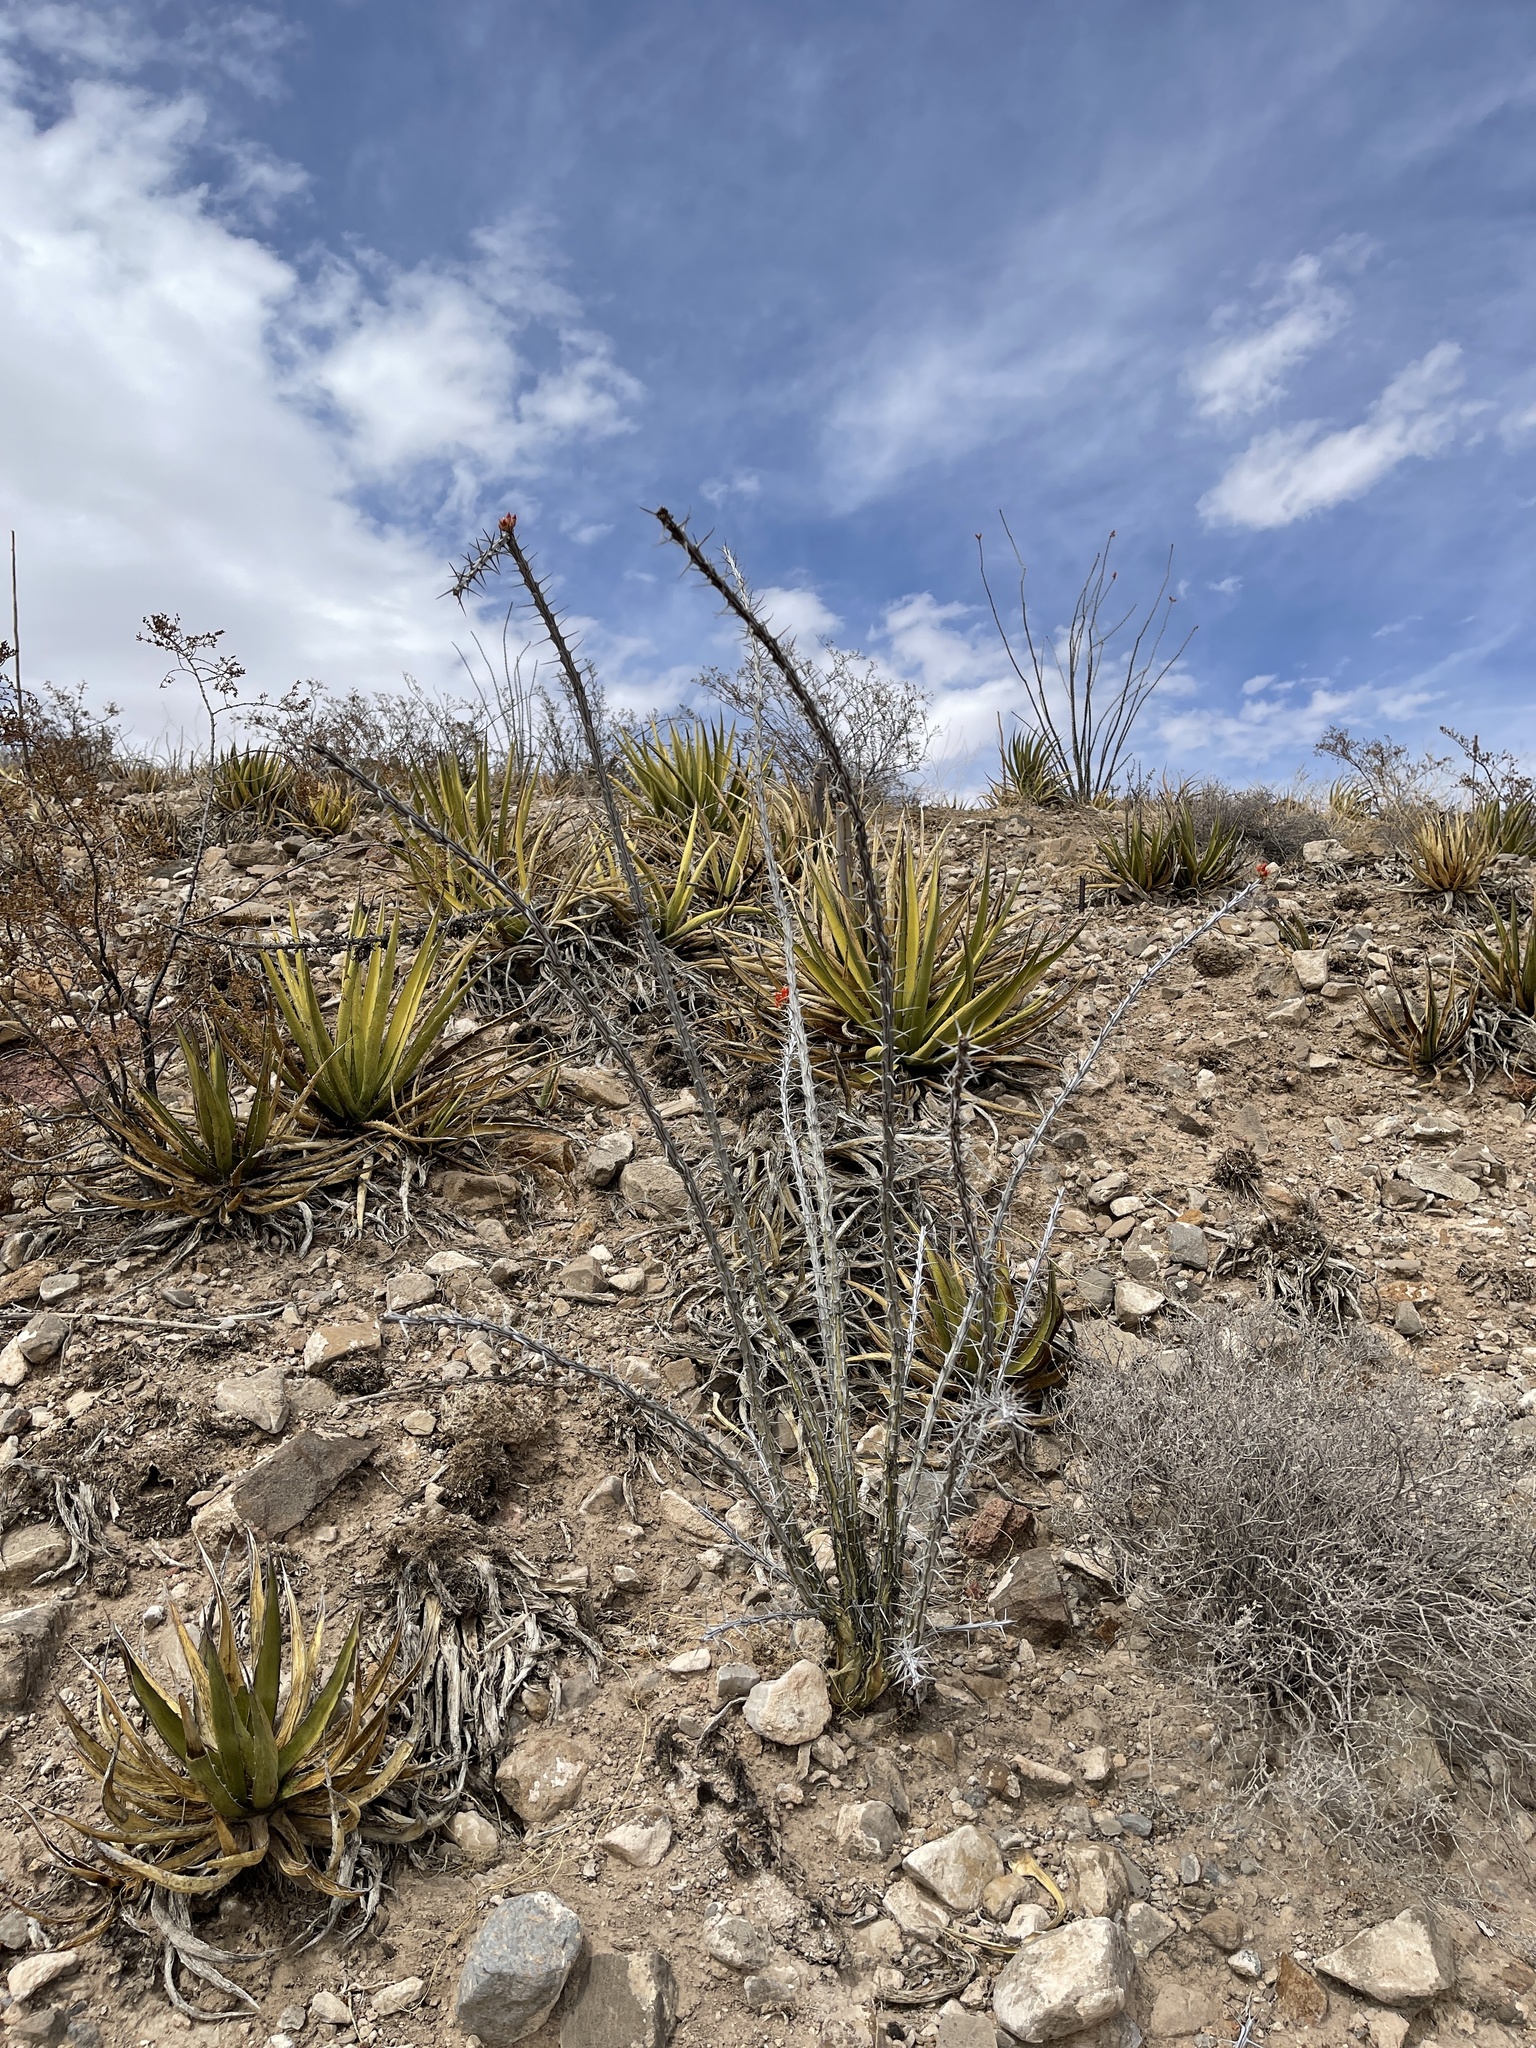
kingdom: Plantae
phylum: Tracheophyta
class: Magnoliopsida
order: Ericales
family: Fouquieriaceae
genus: Fouquieria
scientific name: Fouquieria splendens
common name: Vine-cactus
